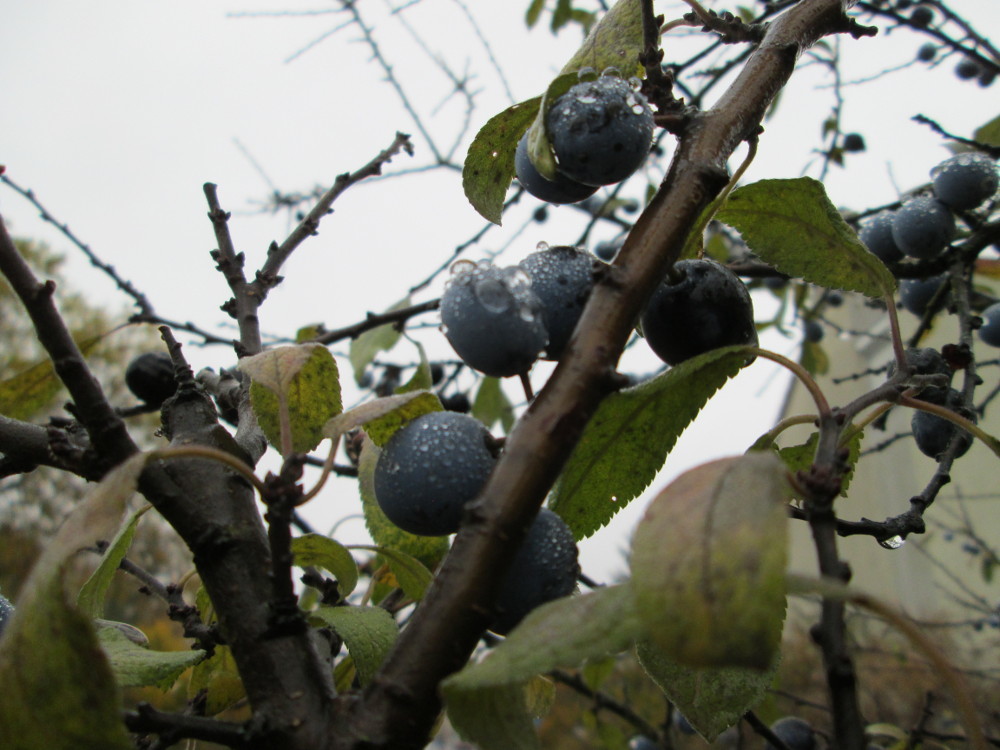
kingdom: Plantae
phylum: Tracheophyta
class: Magnoliopsida
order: Rosales
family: Rosaceae
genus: Prunus
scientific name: Prunus spinosa
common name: Blackthorn
